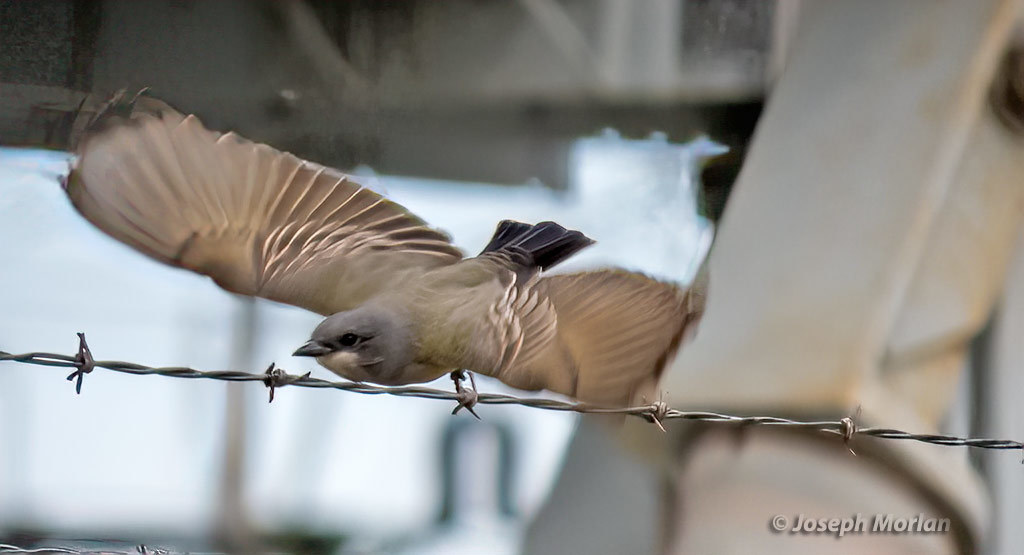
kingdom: Animalia
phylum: Chordata
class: Aves
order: Passeriformes
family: Tyrannidae
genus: Tyrannus
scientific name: Tyrannus vociferans
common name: Cassin's kingbird
